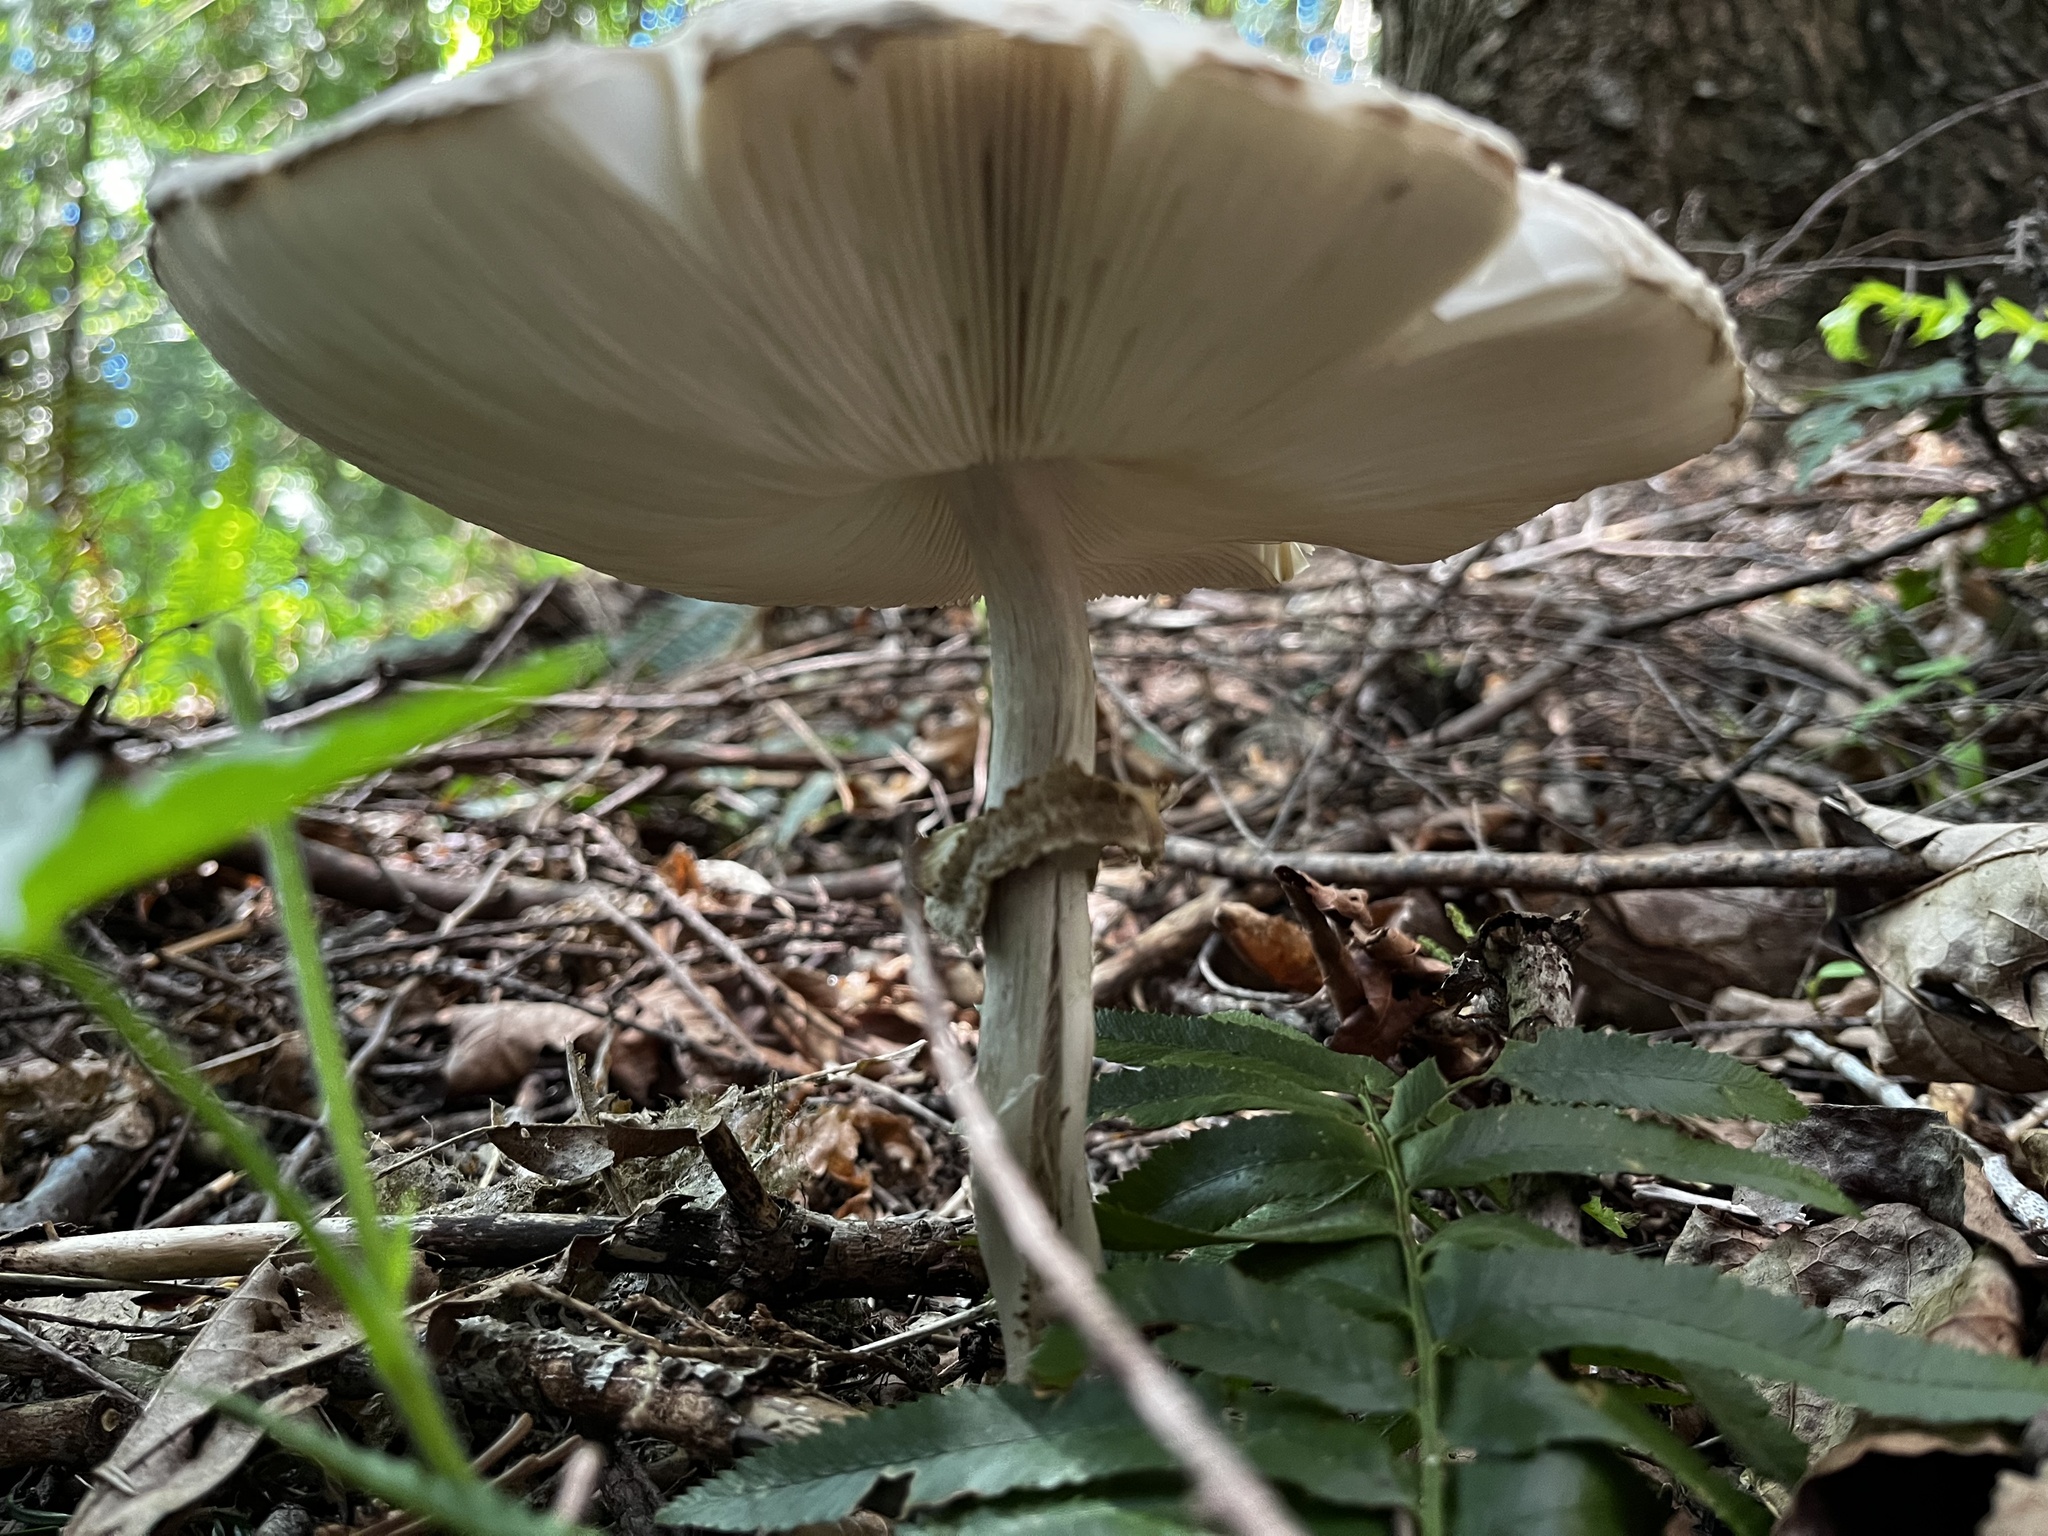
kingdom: Fungi
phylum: Basidiomycota
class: Agaricomycetes
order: Agaricales
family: Agaricaceae
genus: Chlorophyllum
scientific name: Chlorophyllum olivieri
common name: Conifer parasol
